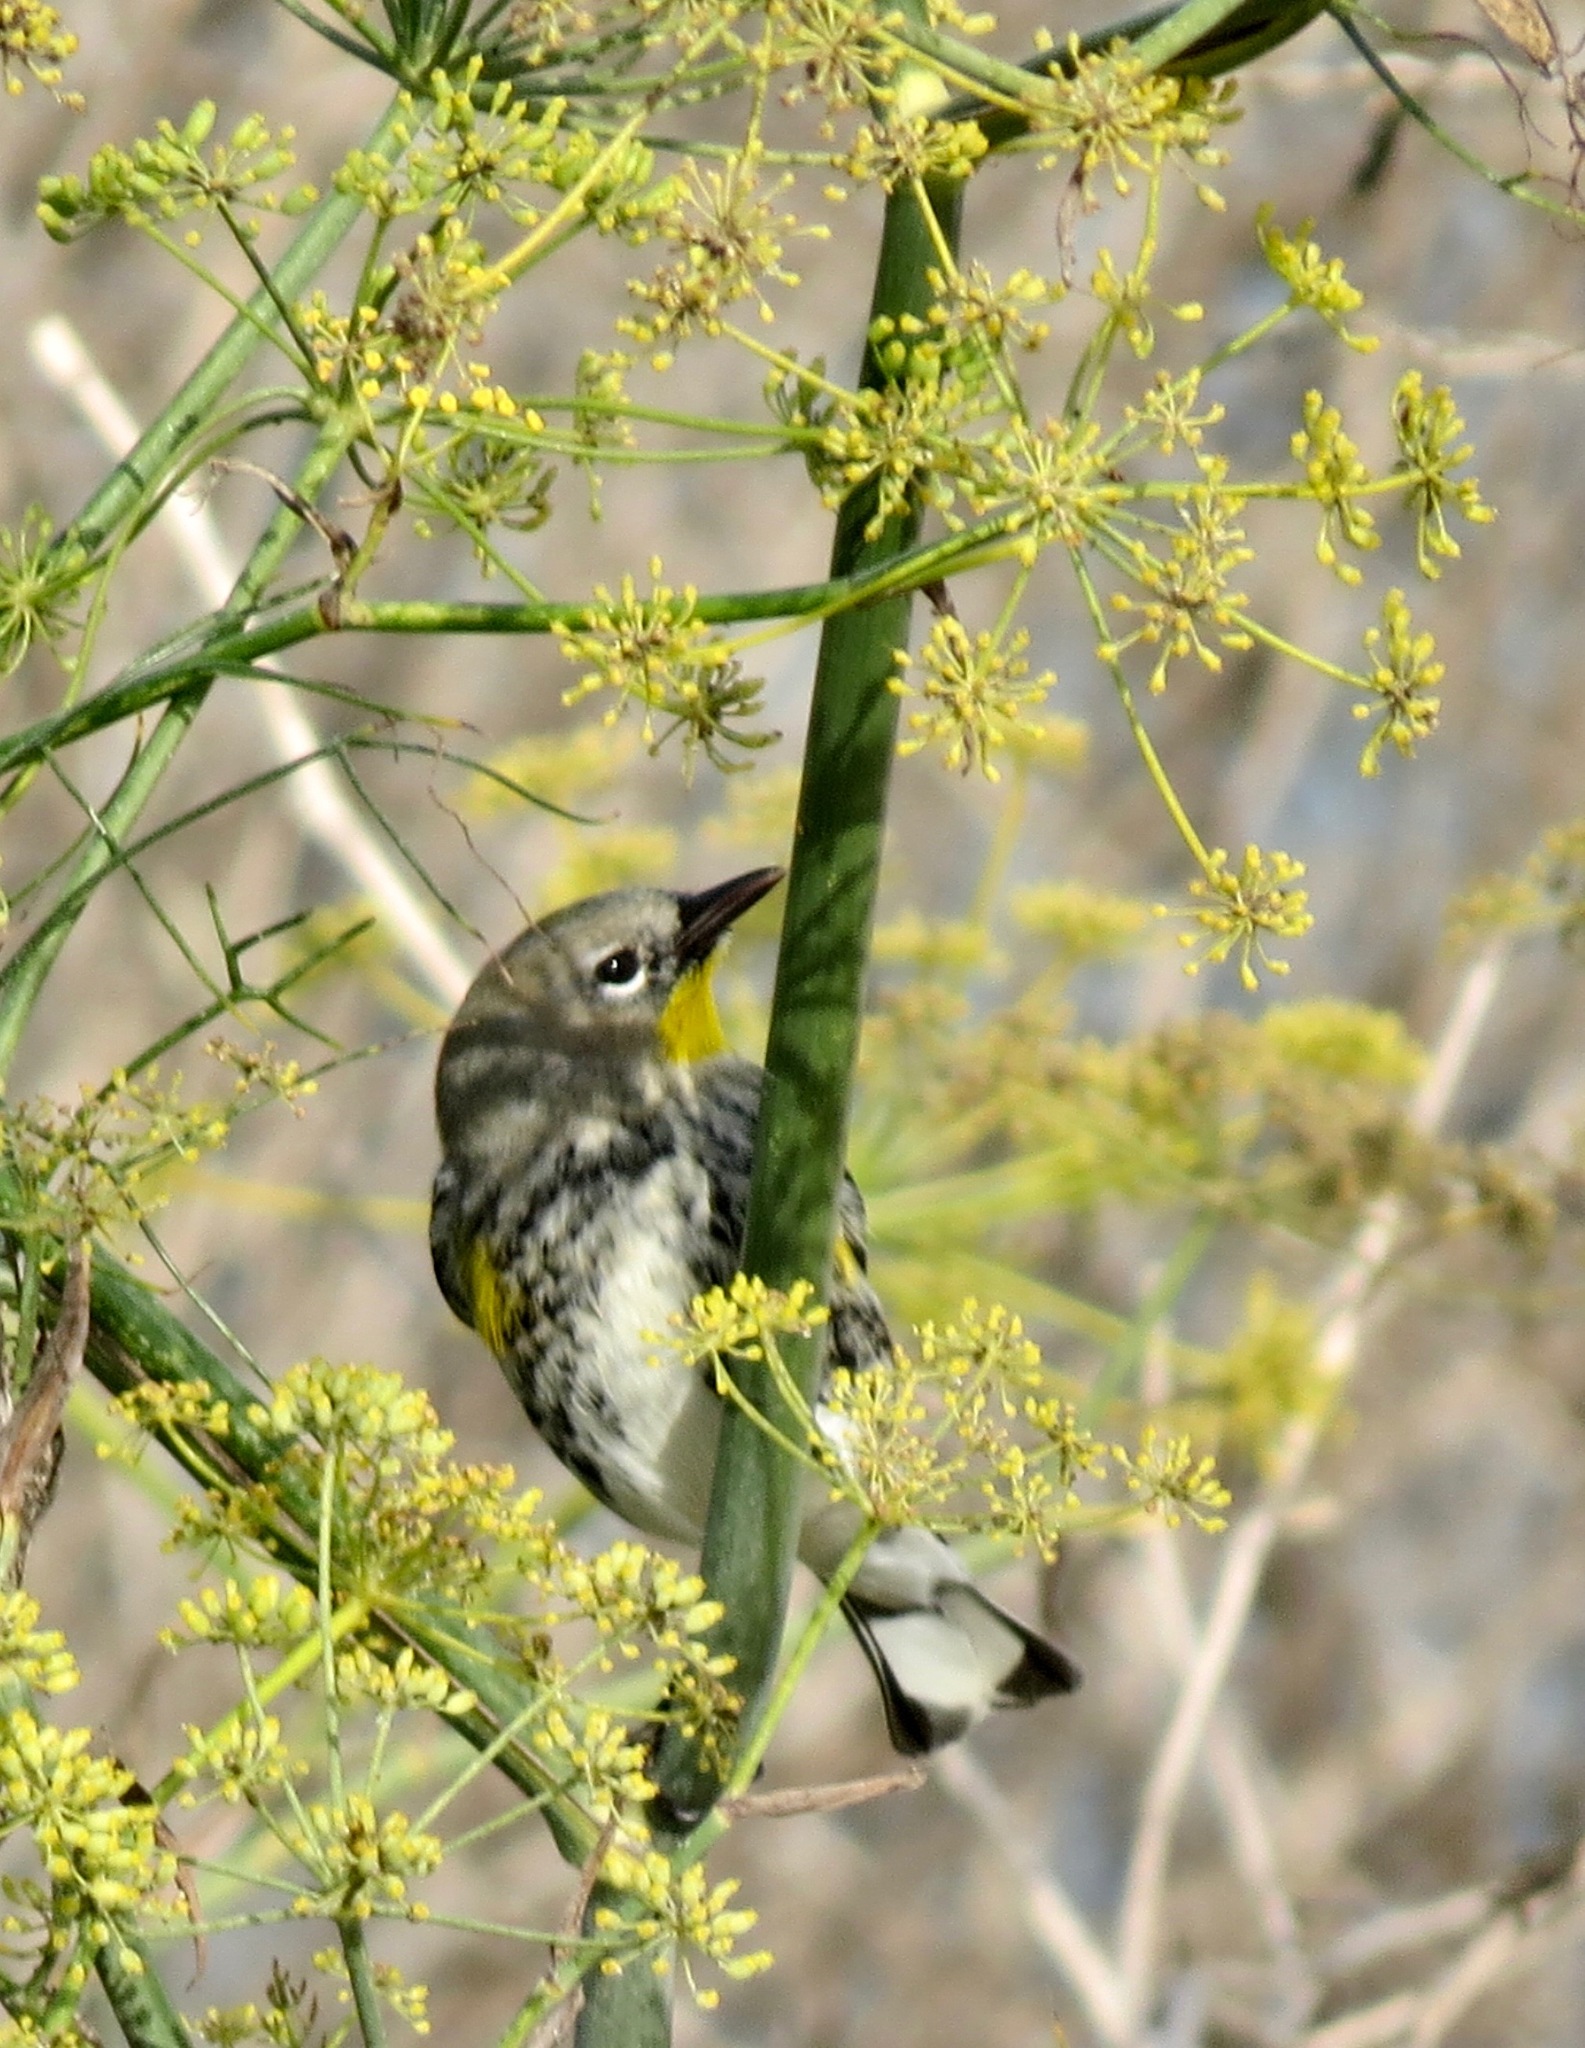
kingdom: Animalia
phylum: Chordata
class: Aves
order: Passeriformes
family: Parulidae
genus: Setophaga
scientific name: Setophaga coronata
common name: Myrtle warbler
